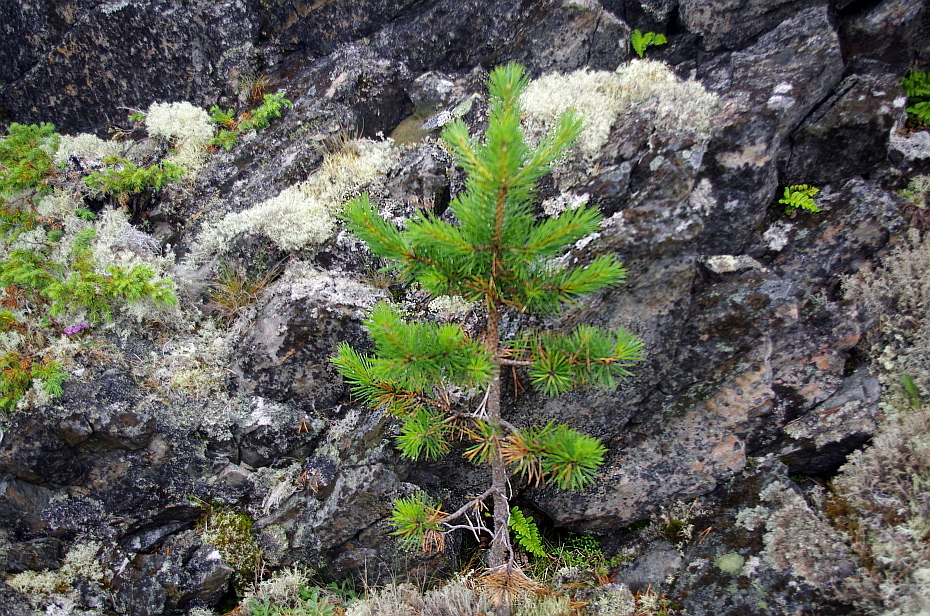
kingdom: Plantae
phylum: Tracheophyta
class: Pinopsida
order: Pinales
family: Pinaceae
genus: Pinus
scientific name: Pinus sylvestris
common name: Scots pine
